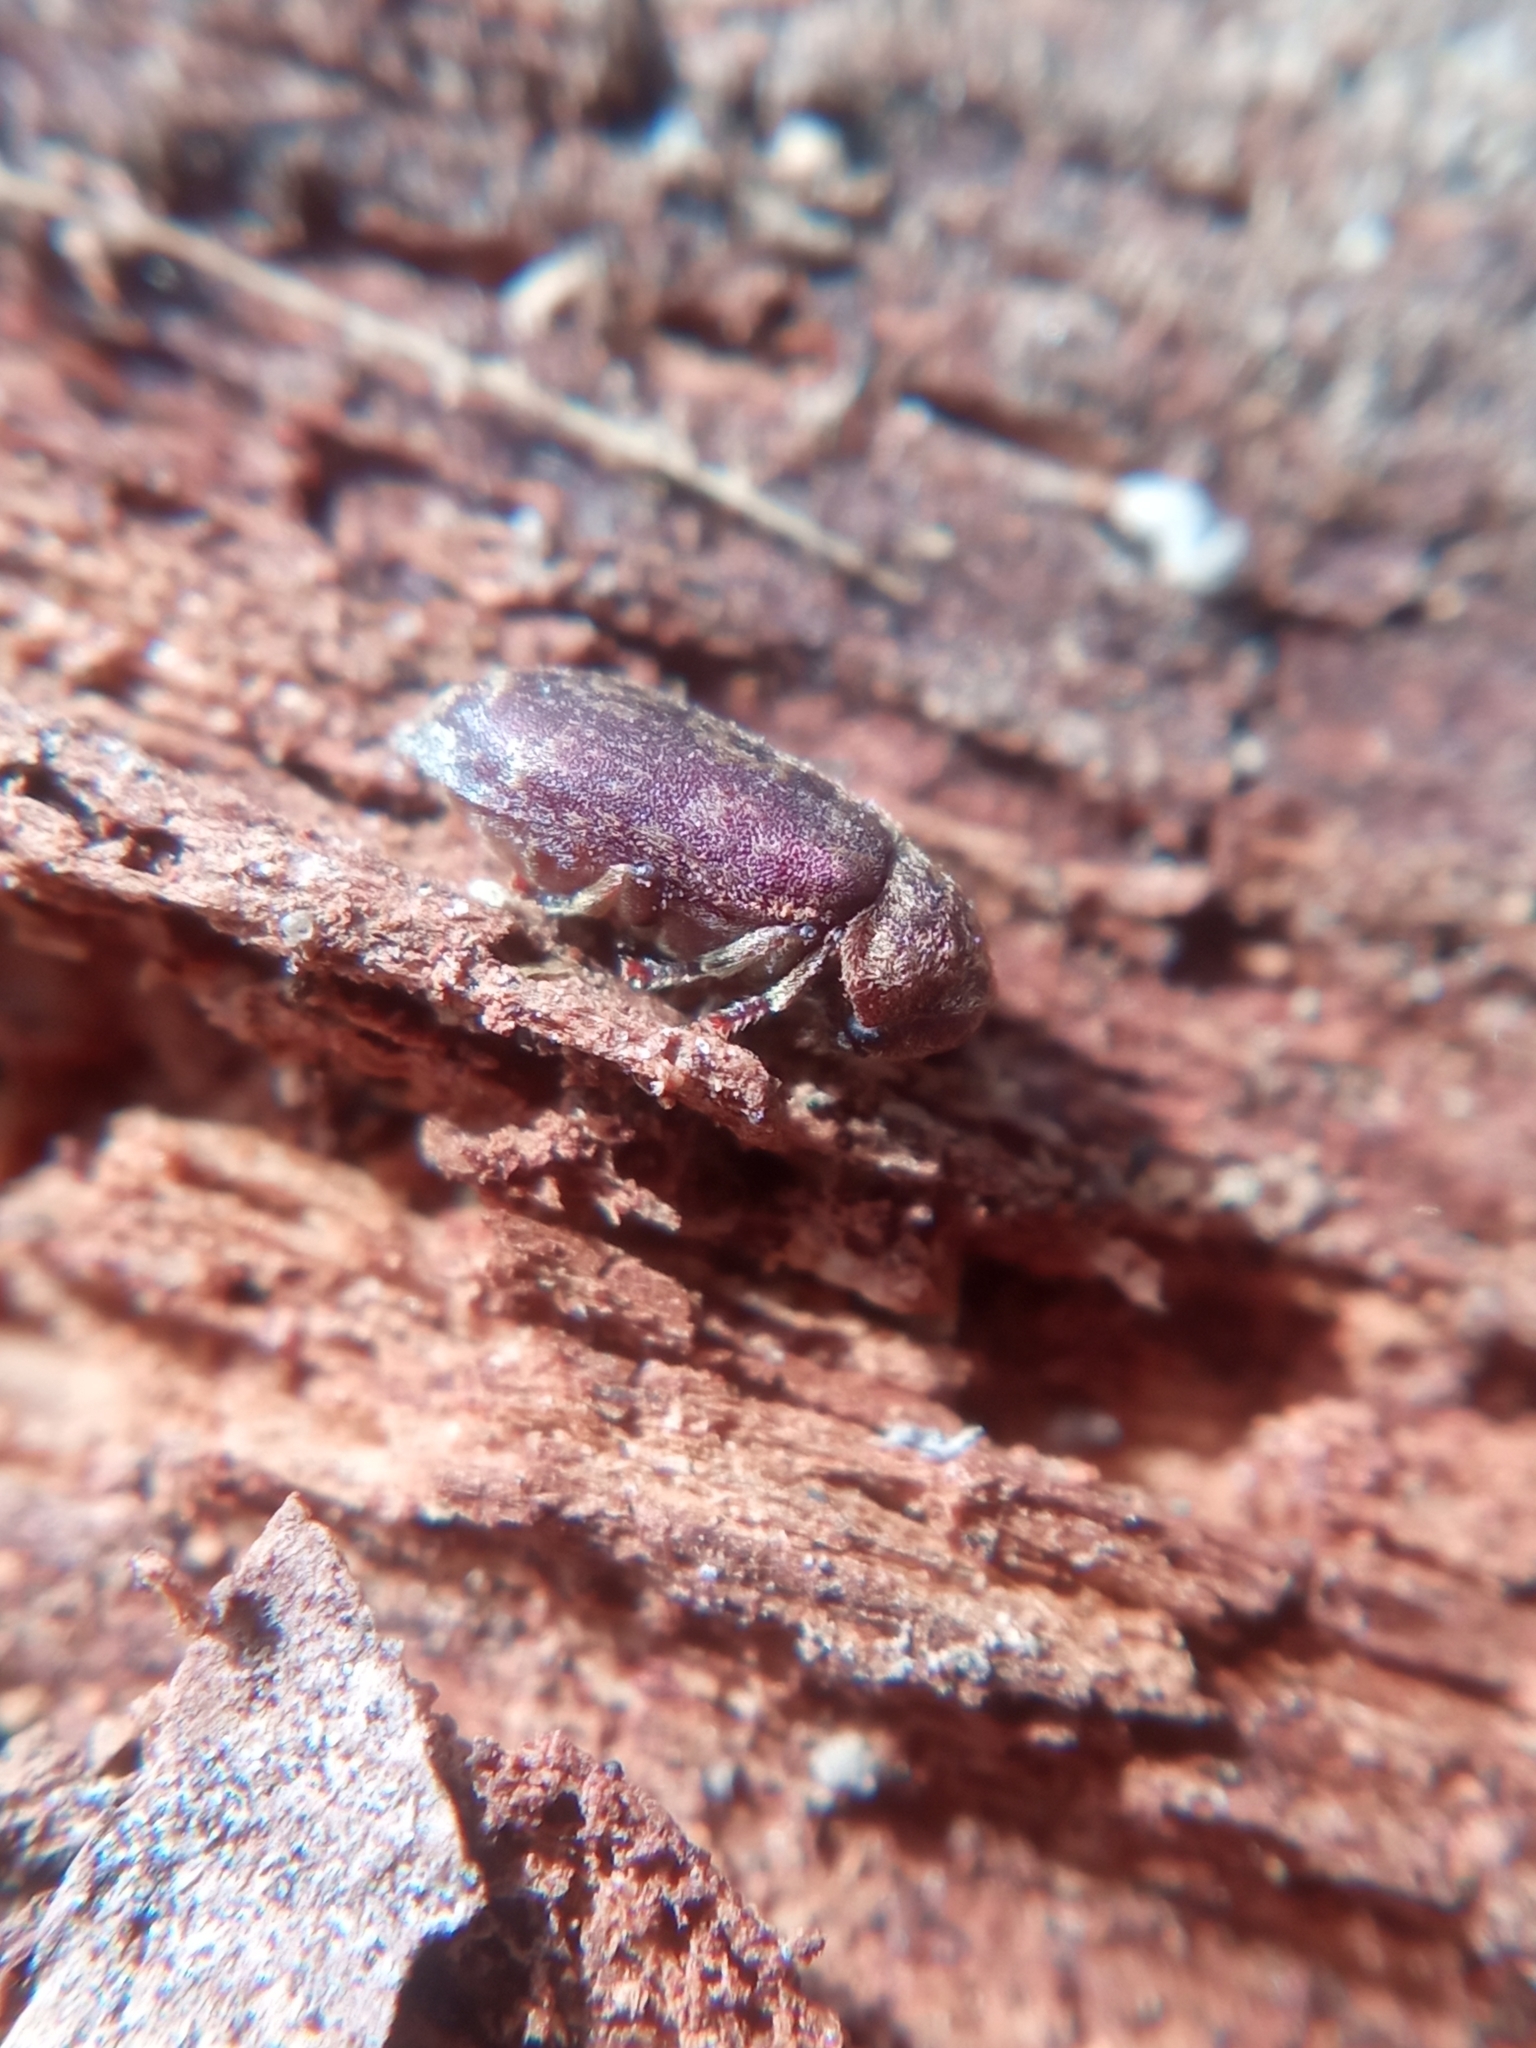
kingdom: Animalia
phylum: Arthropoda
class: Insecta
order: Coleoptera
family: Anobiidae
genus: Xestobium
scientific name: Xestobium rufovillosum
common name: Death-watch beetle
